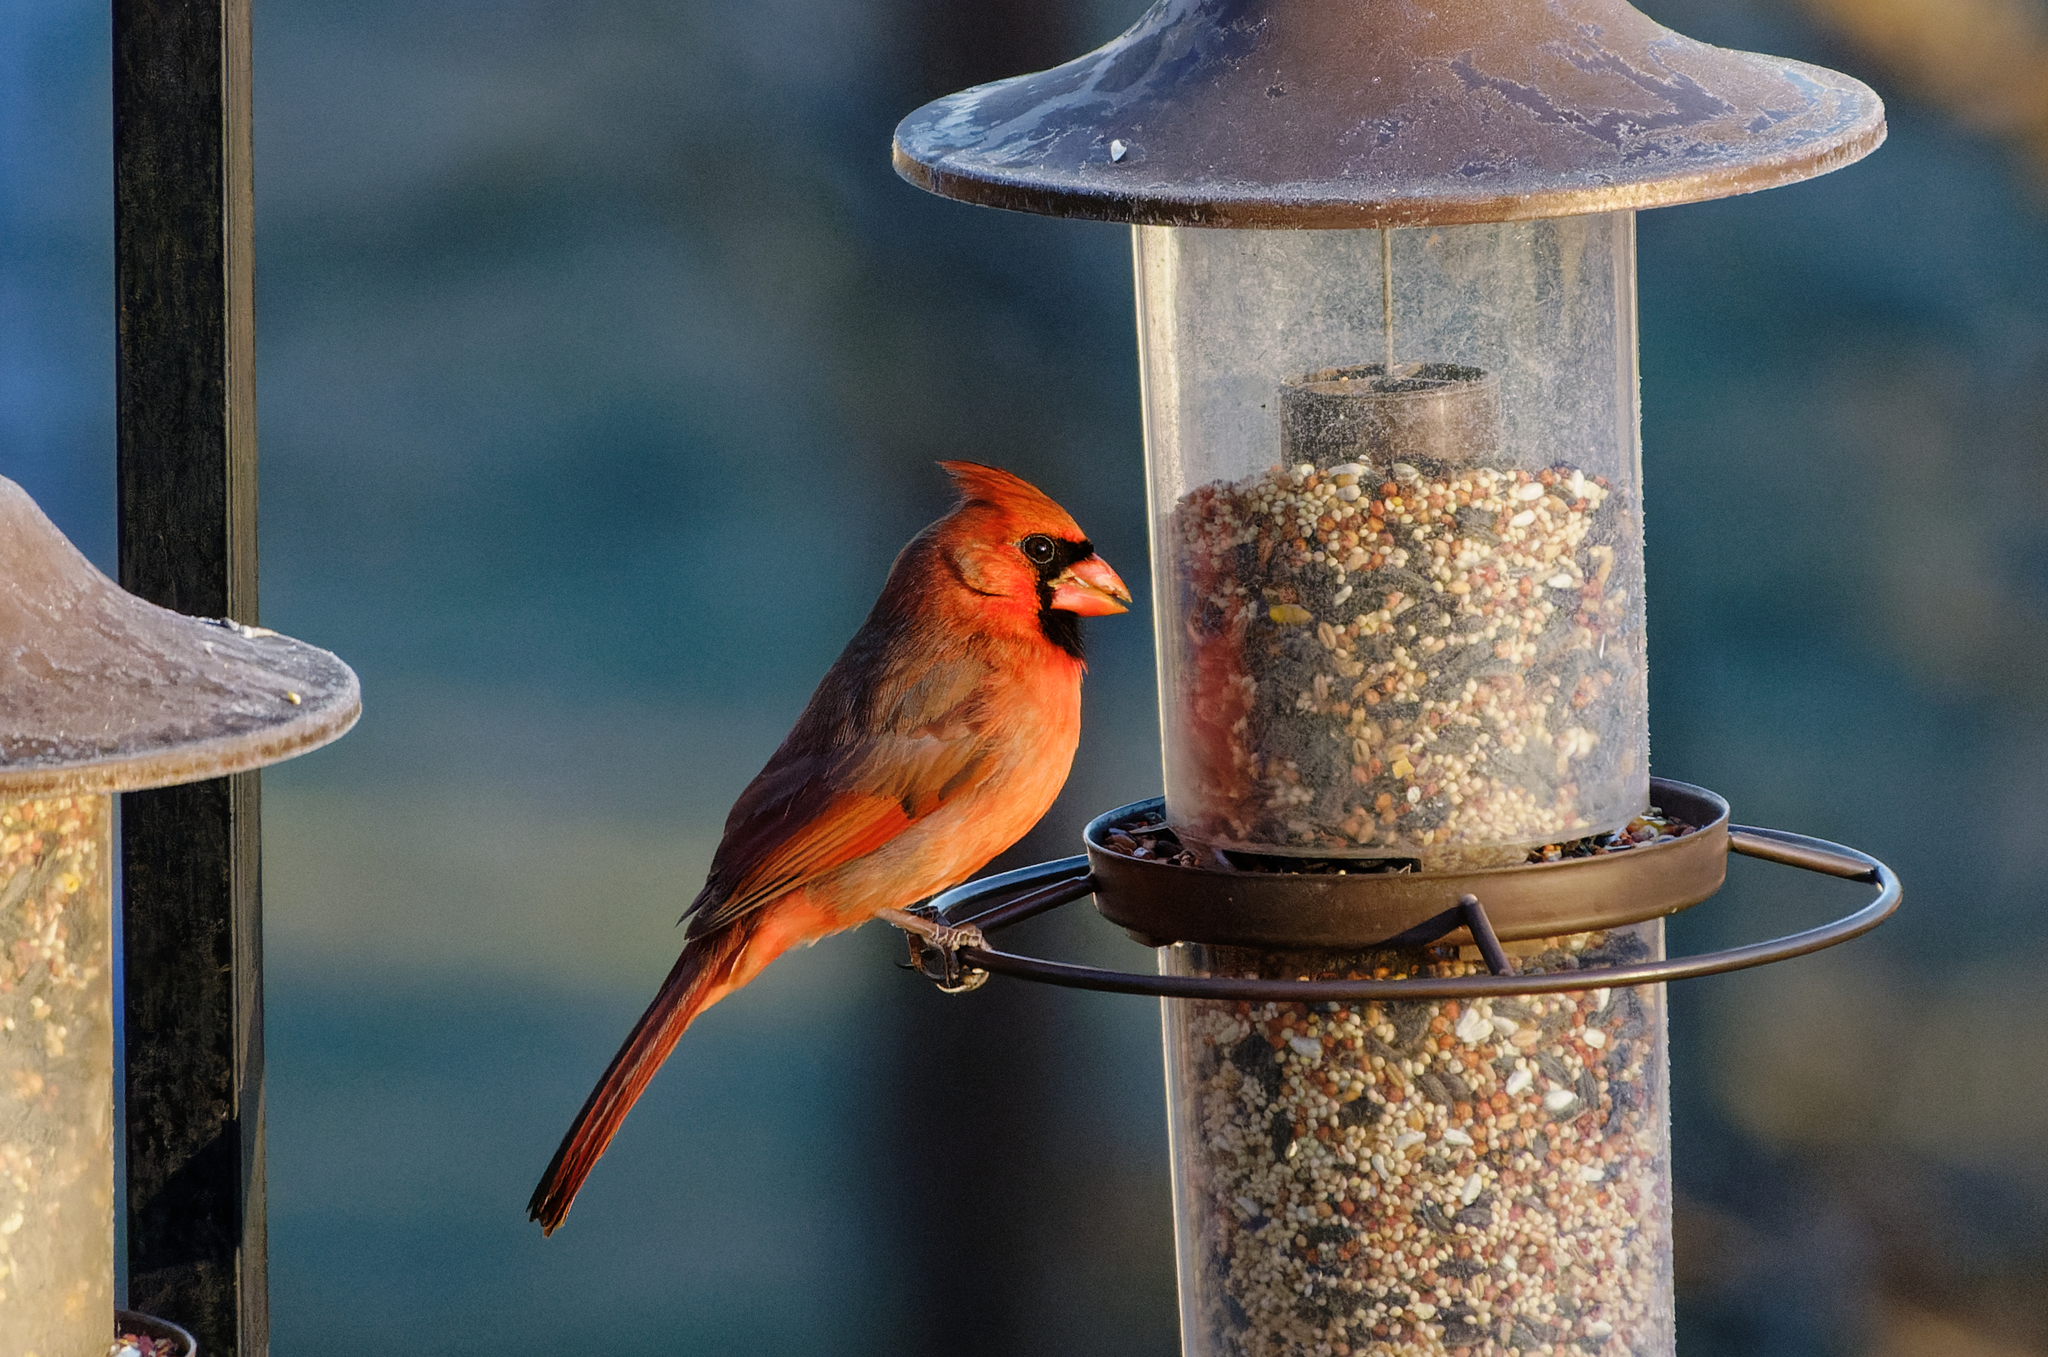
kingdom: Animalia
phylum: Chordata
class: Aves
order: Passeriformes
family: Cardinalidae
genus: Cardinalis
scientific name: Cardinalis cardinalis
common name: Northern cardinal
